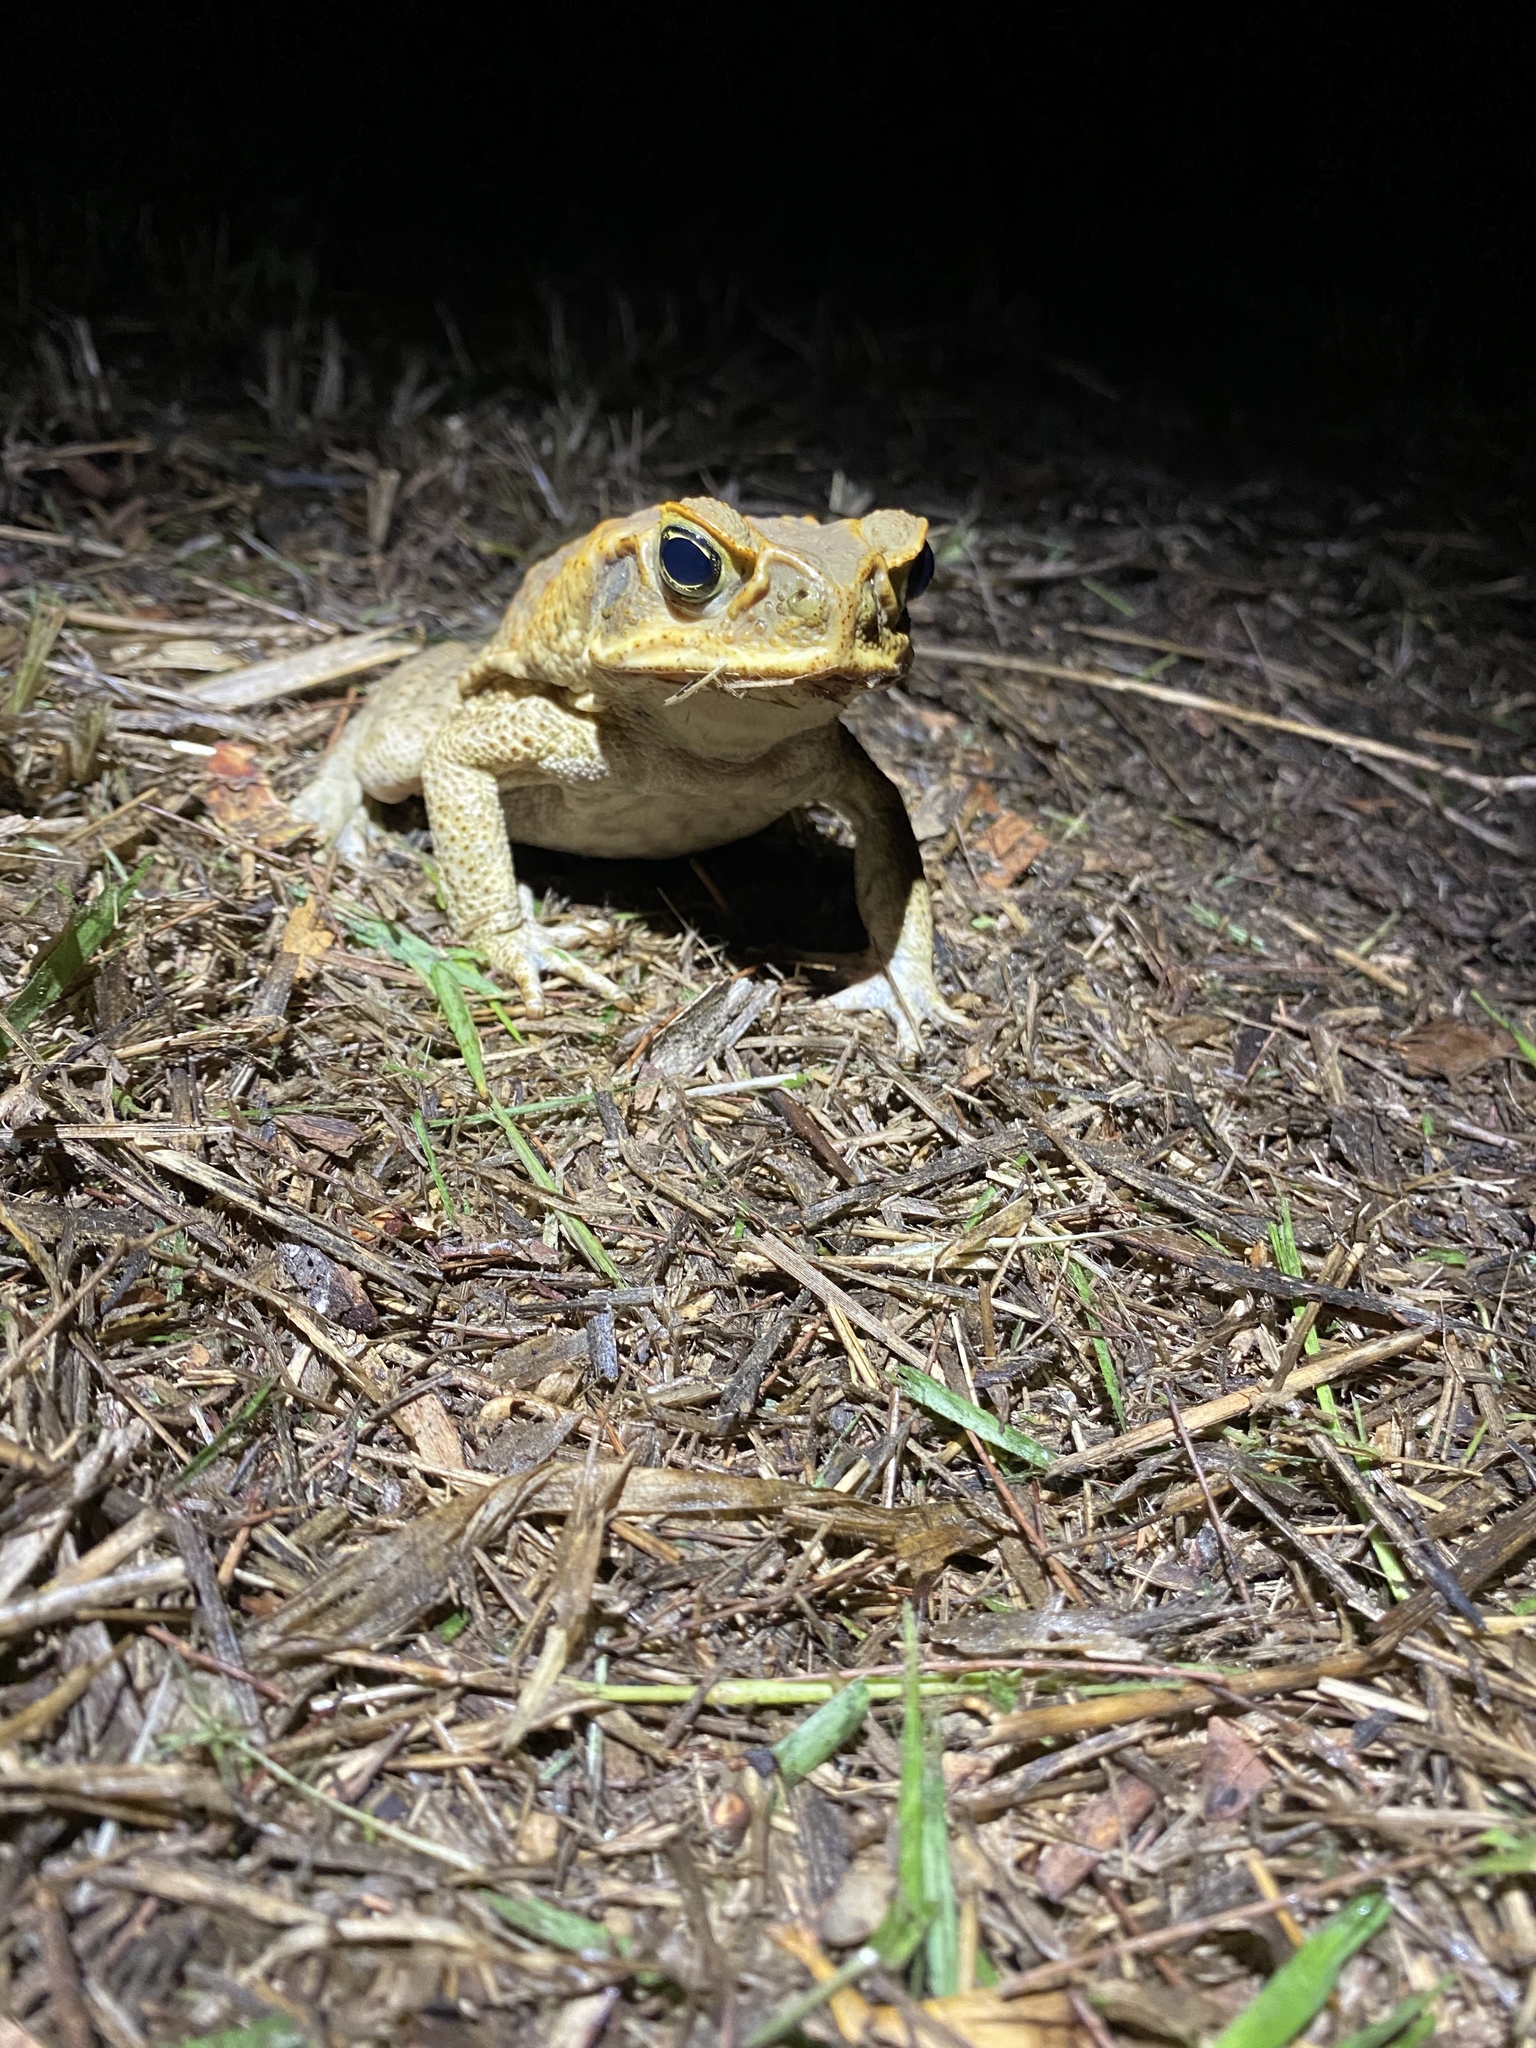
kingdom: Animalia
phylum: Chordata
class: Amphibia
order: Anura
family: Bufonidae
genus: Rhinella
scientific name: Rhinella marina
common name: Cane toad
